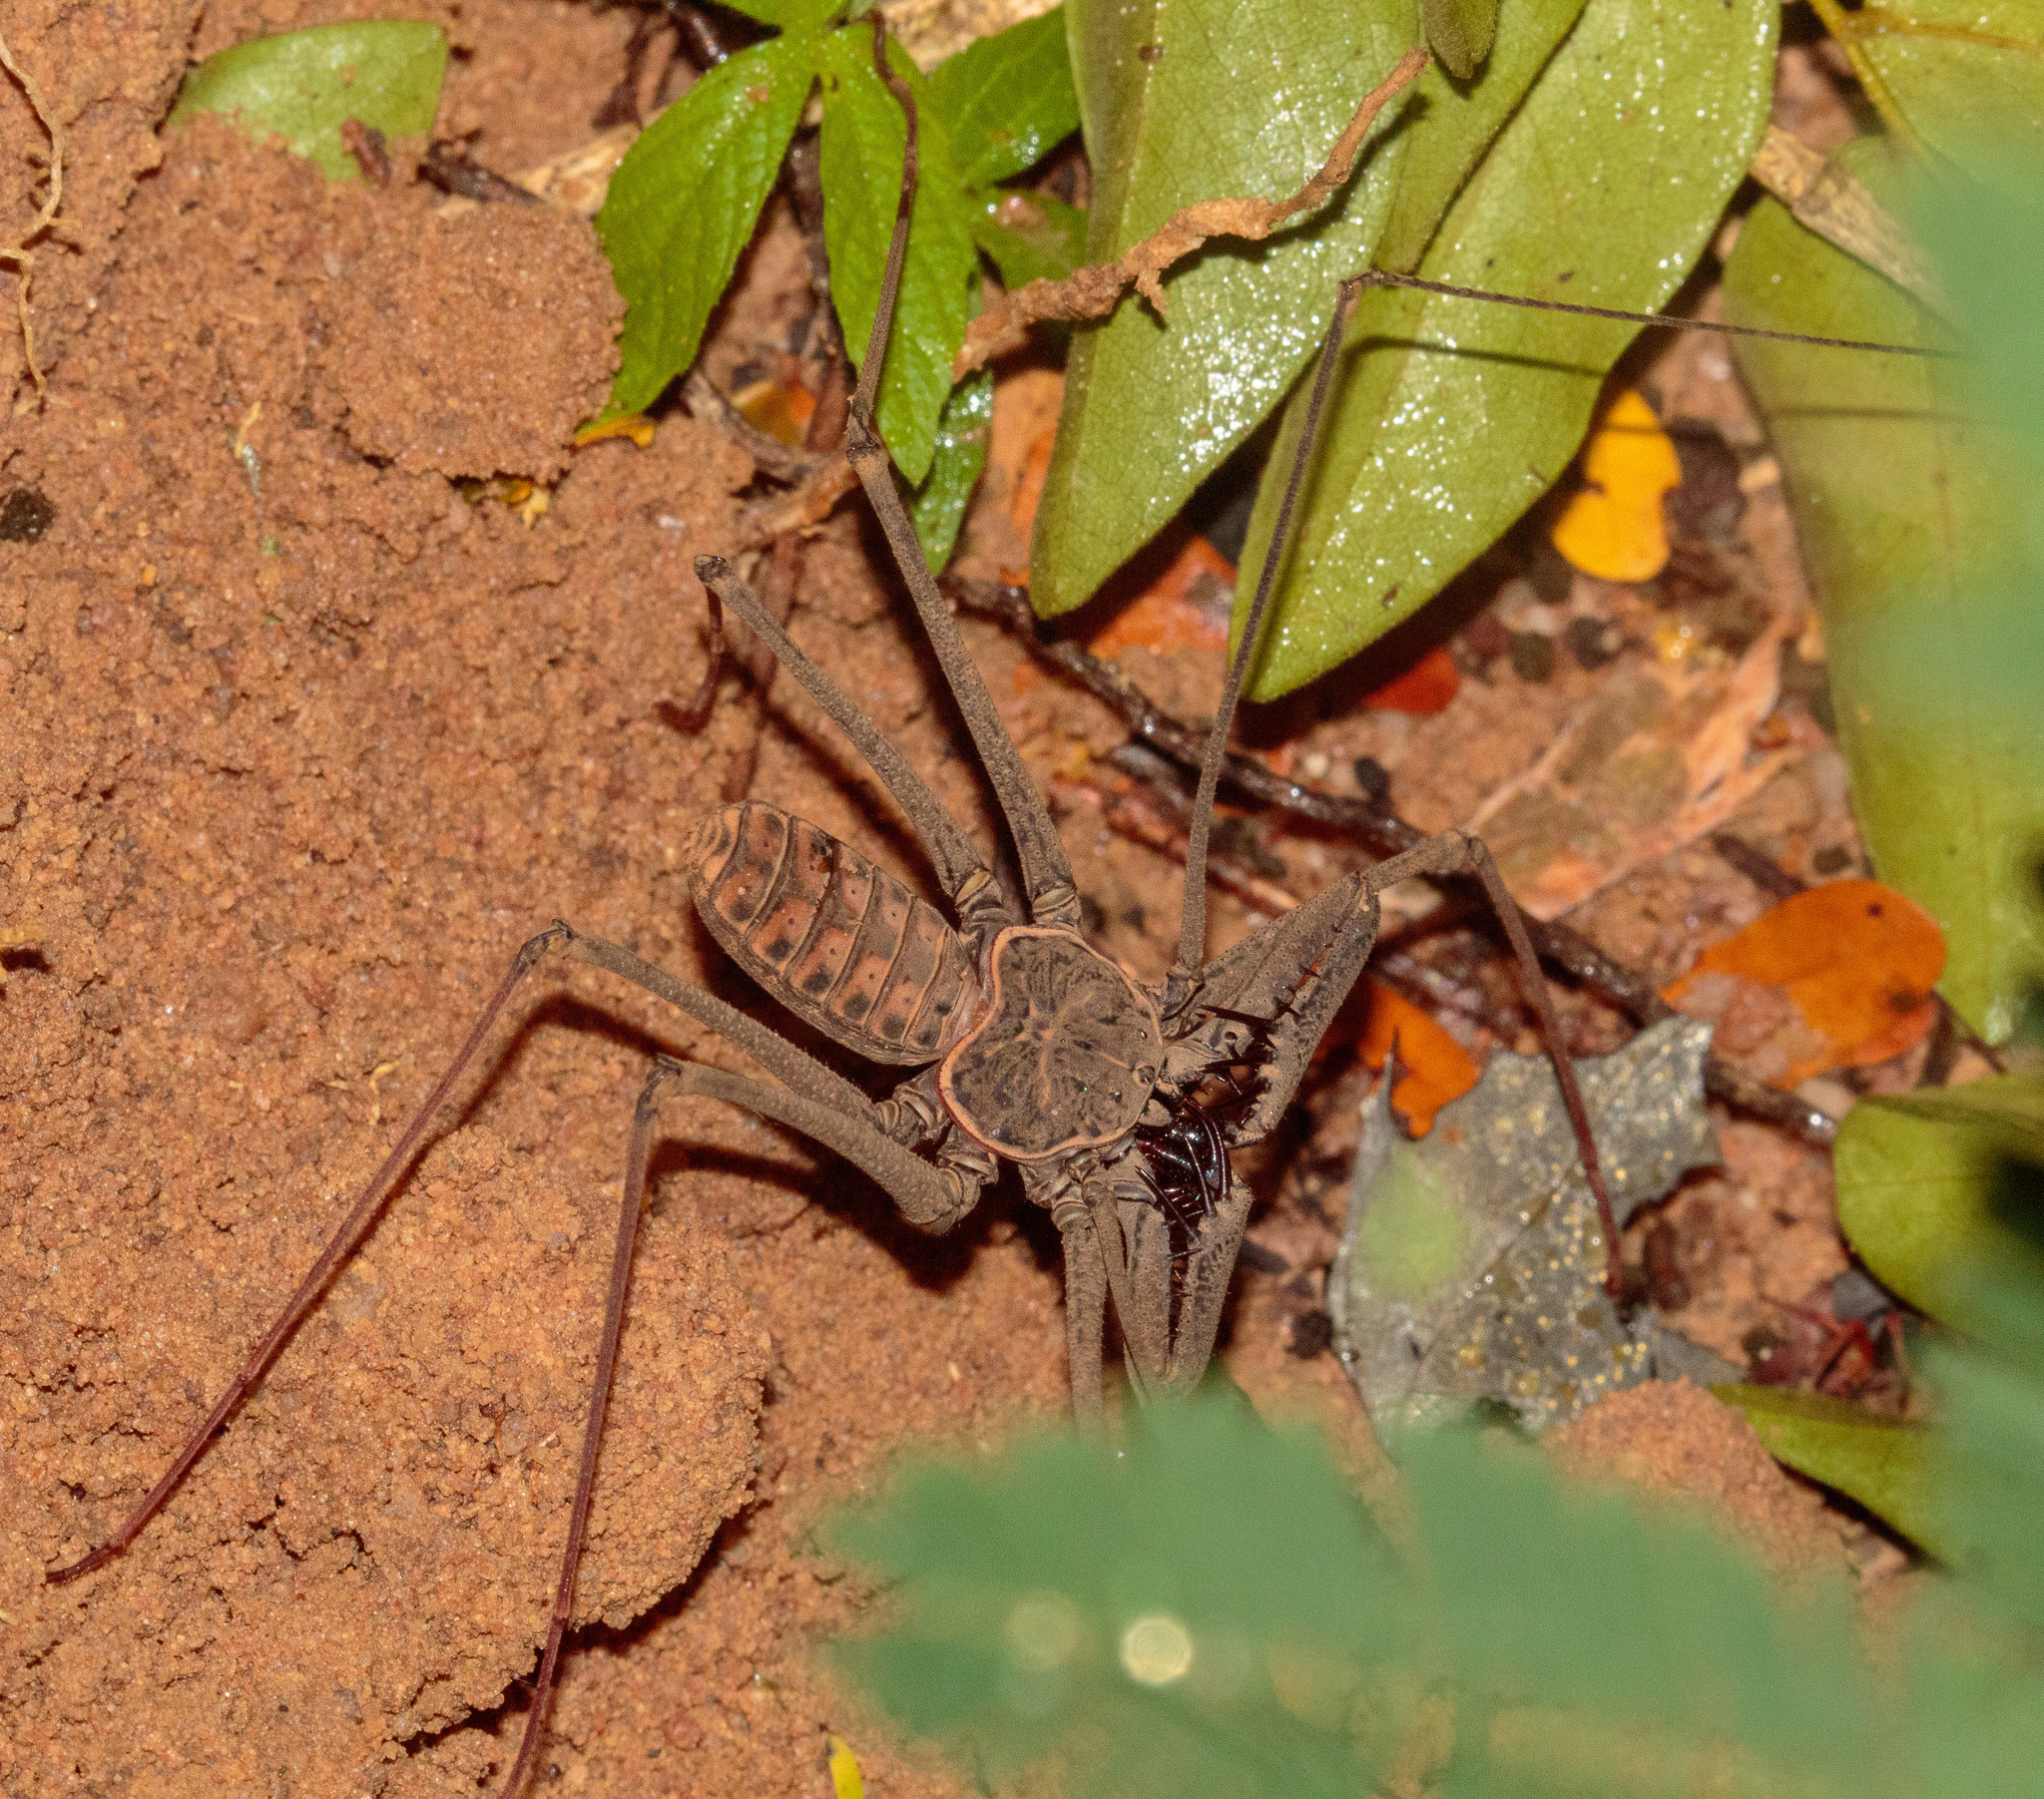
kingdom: Animalia
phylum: Arthropoda
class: Arachnida
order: Amblypygi
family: Phrynidae
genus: Heterophrynus
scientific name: Heterophrynus longicornis
